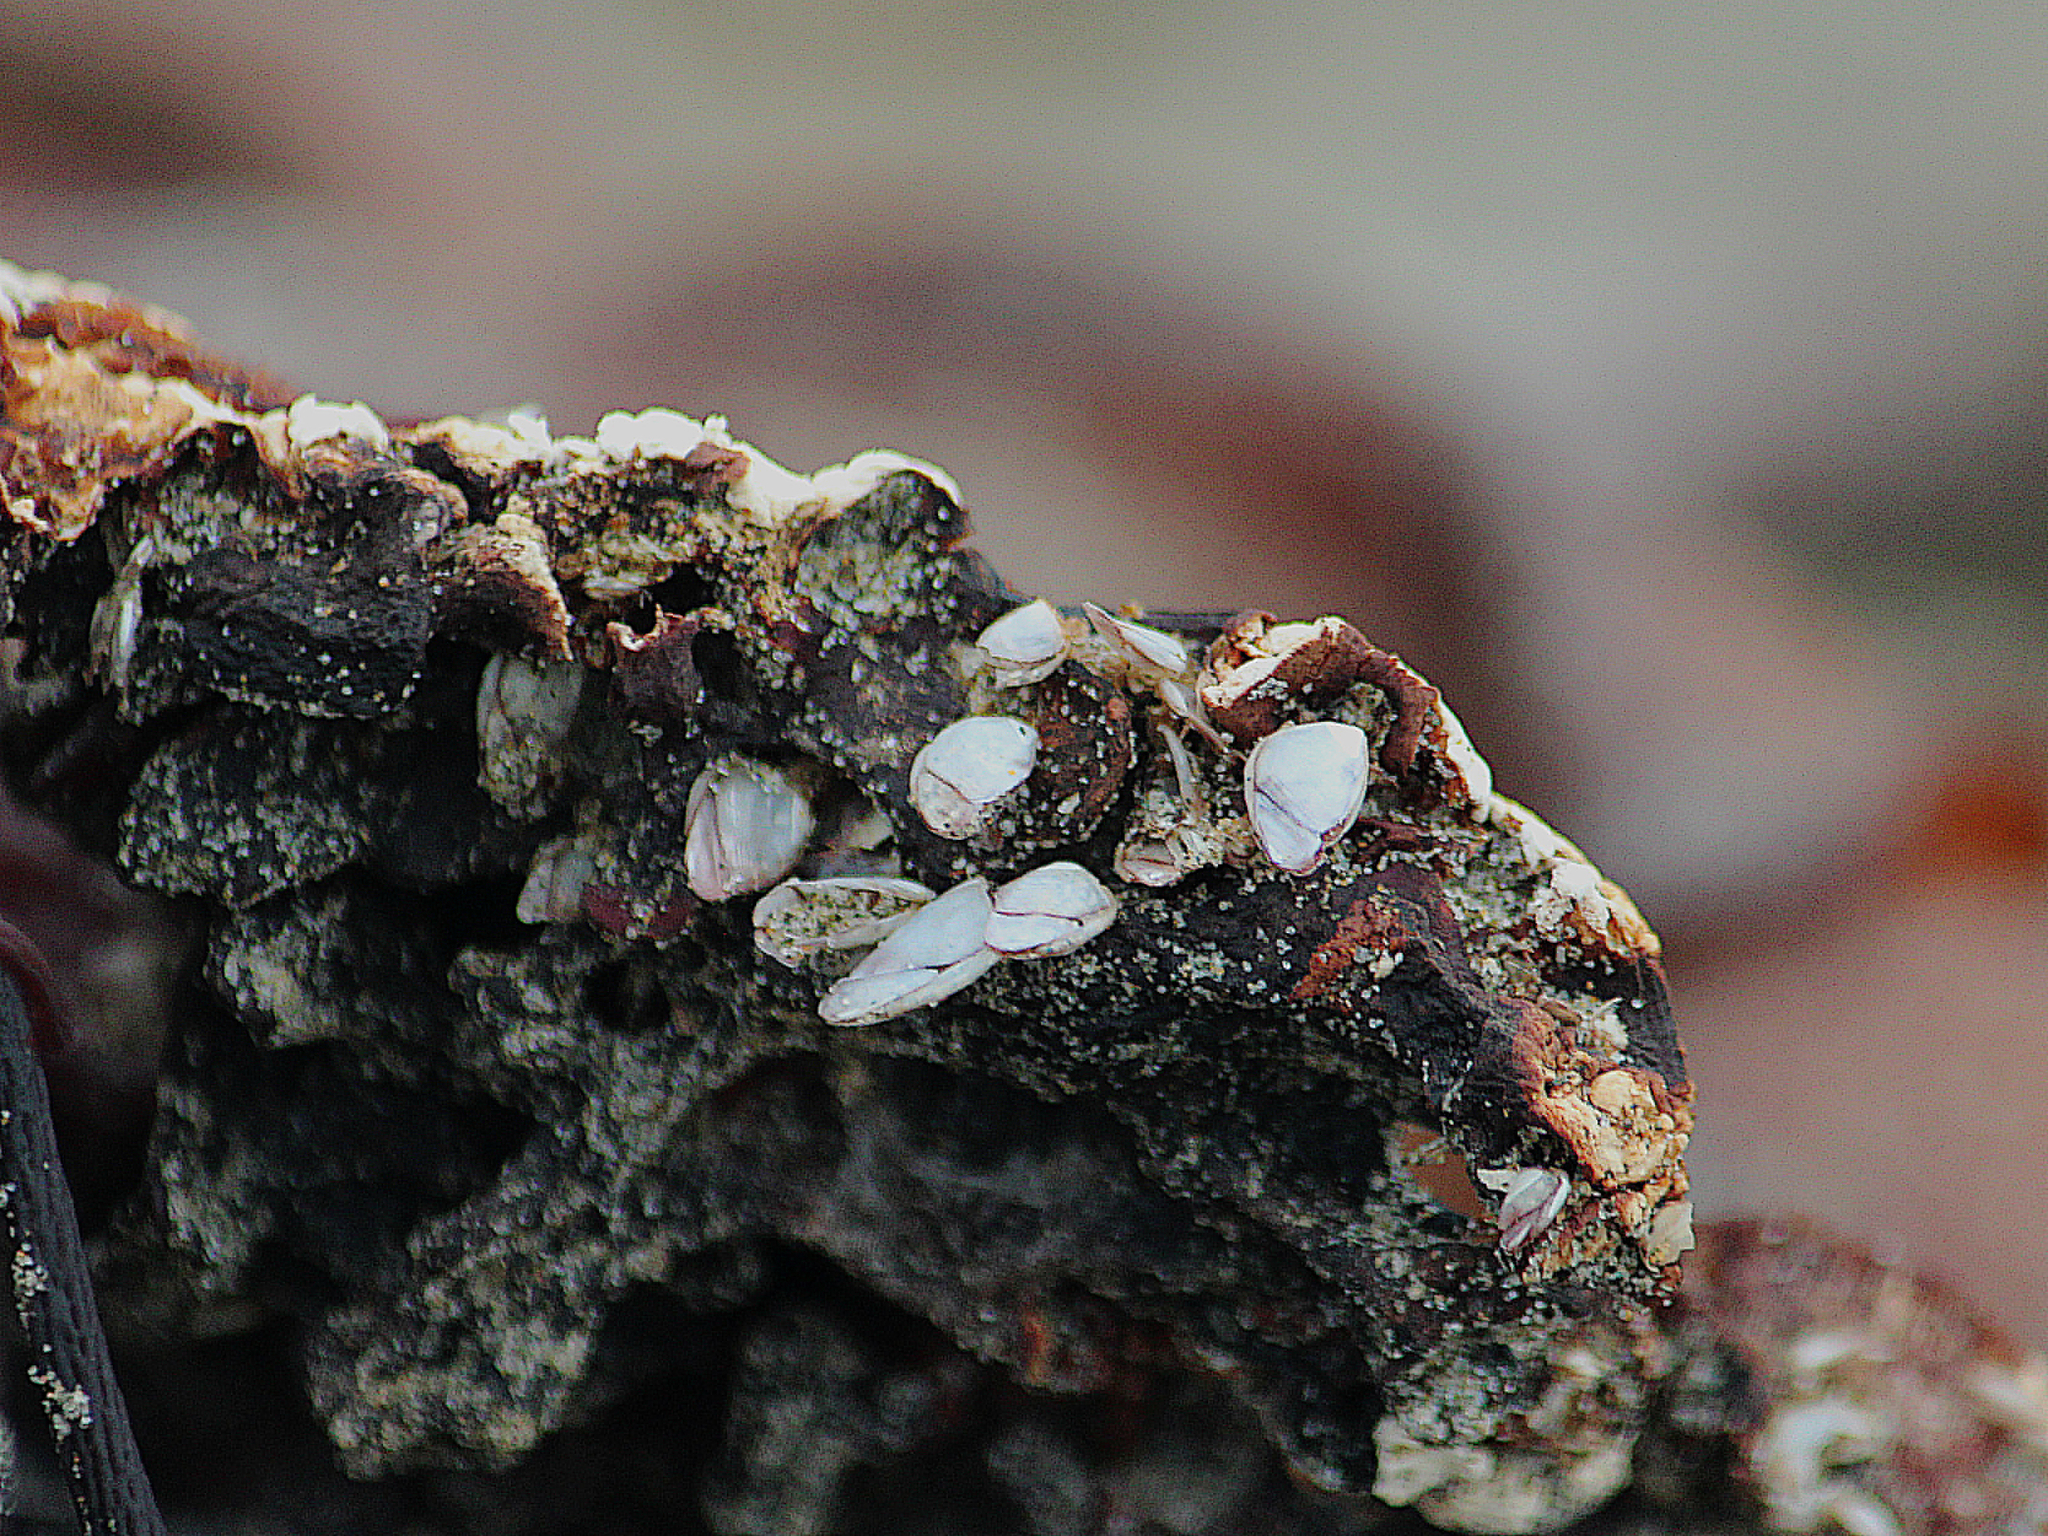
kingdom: Animalia
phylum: Arthropoda
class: Maxillopoda
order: Pedunculata
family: Lepadidae
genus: Lepas
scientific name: Lepas australis
